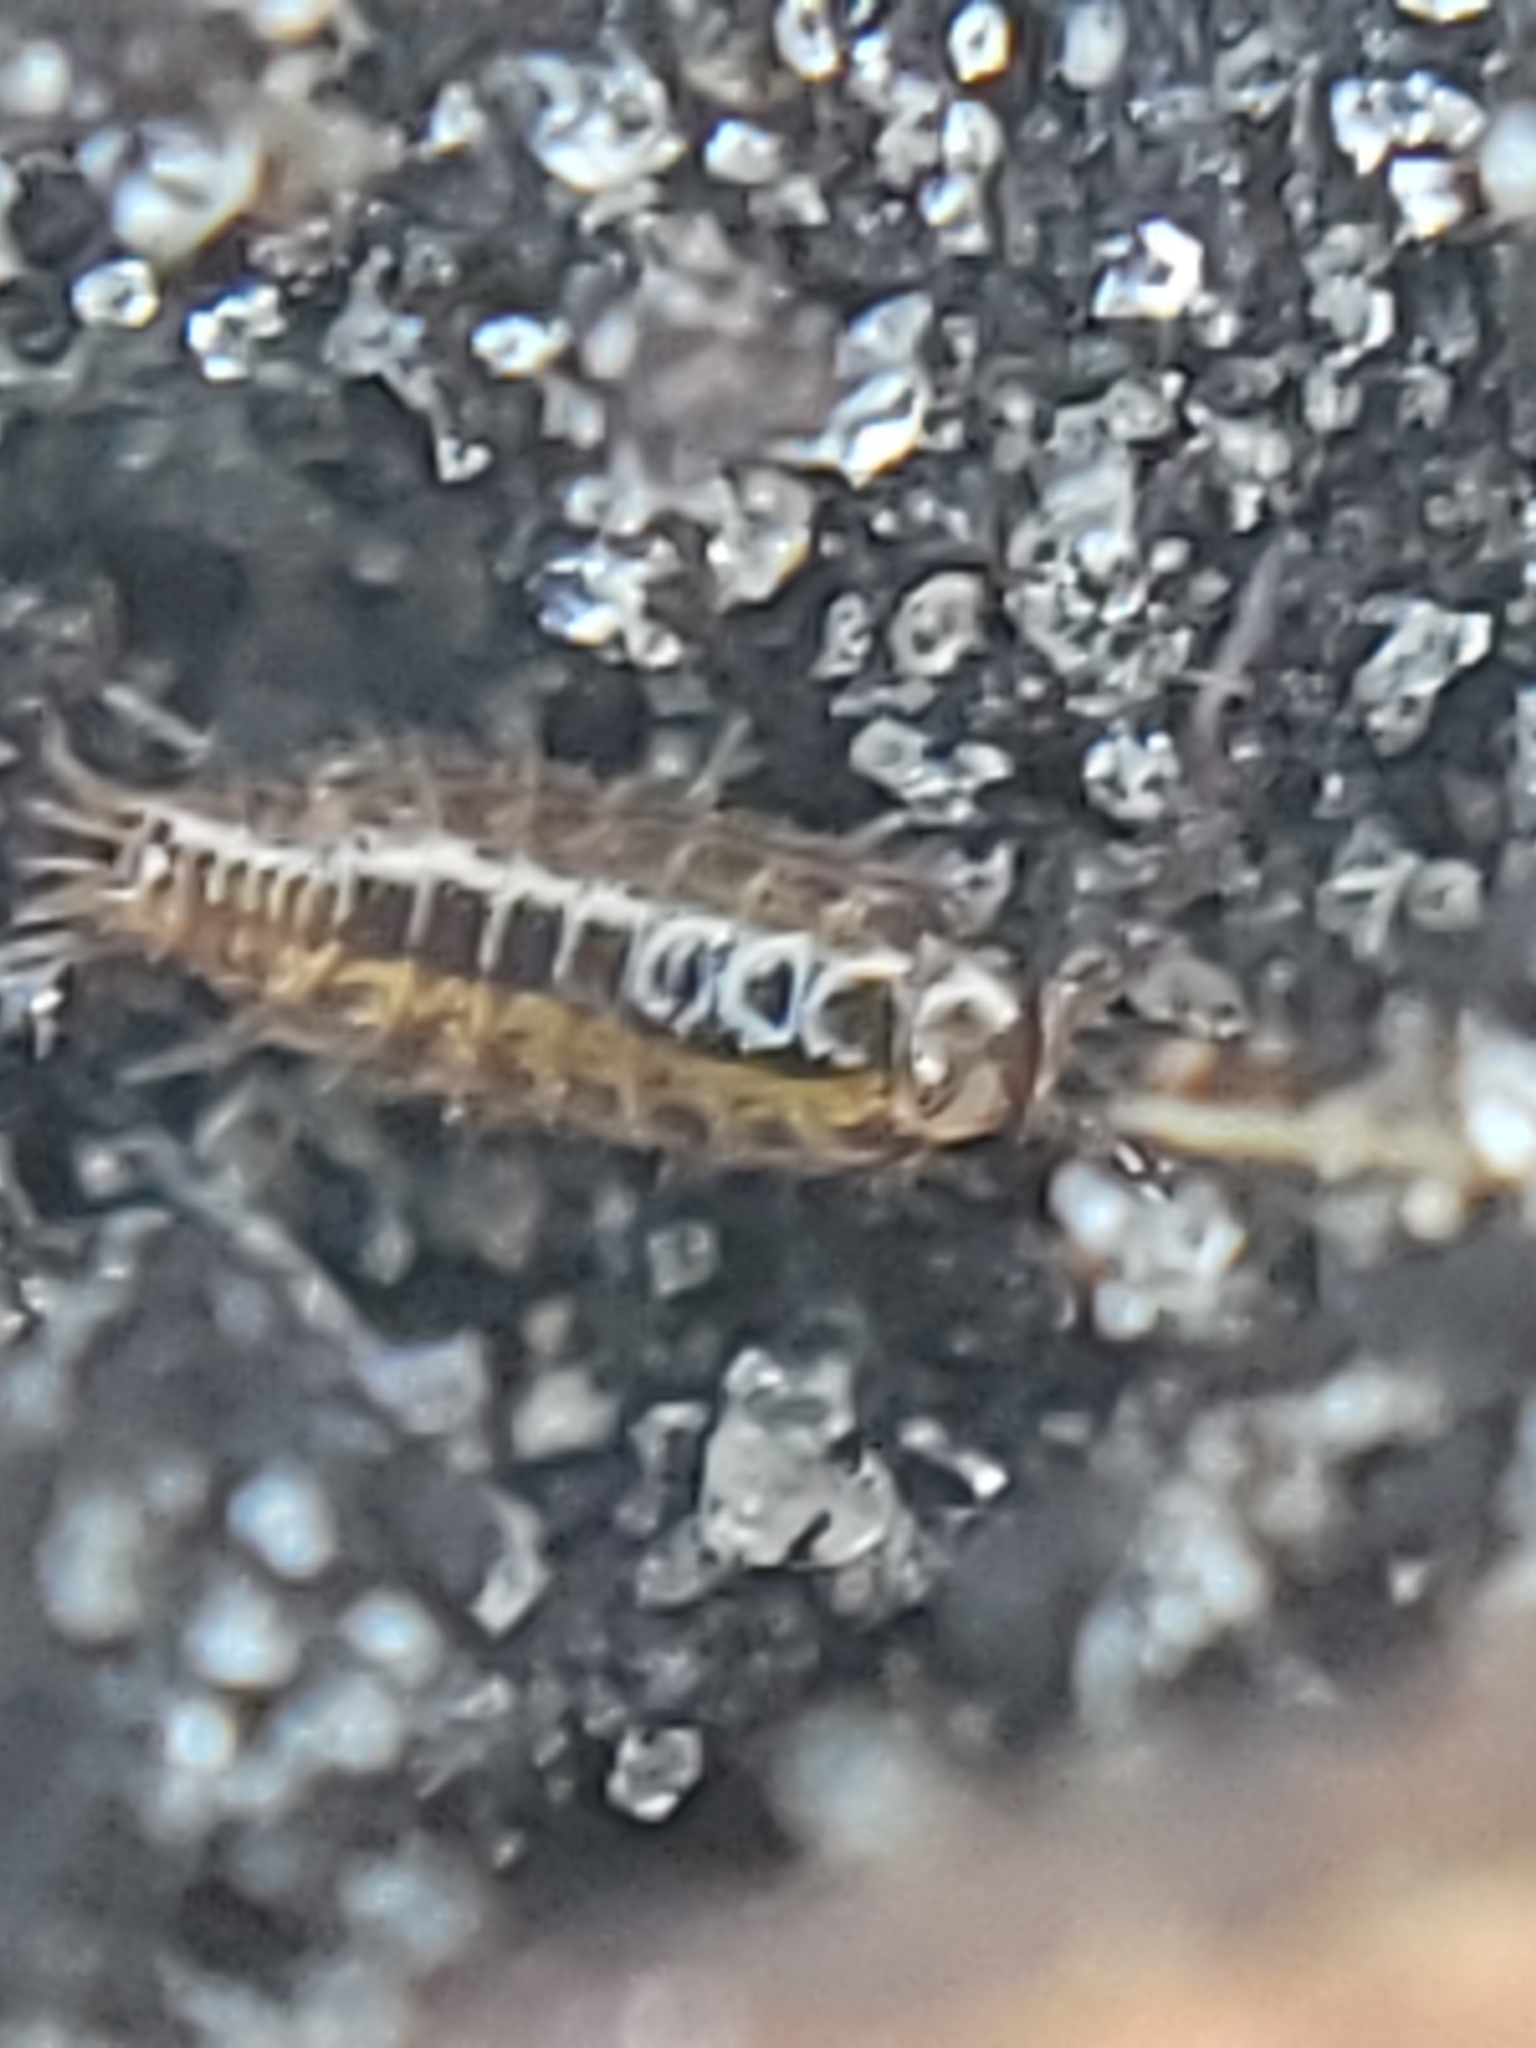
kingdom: Animalia
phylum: Arthropoda
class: Malacostraca
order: Isopoda
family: Philosciidae
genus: Atlantoscia
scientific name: Atlantoscia floridana
